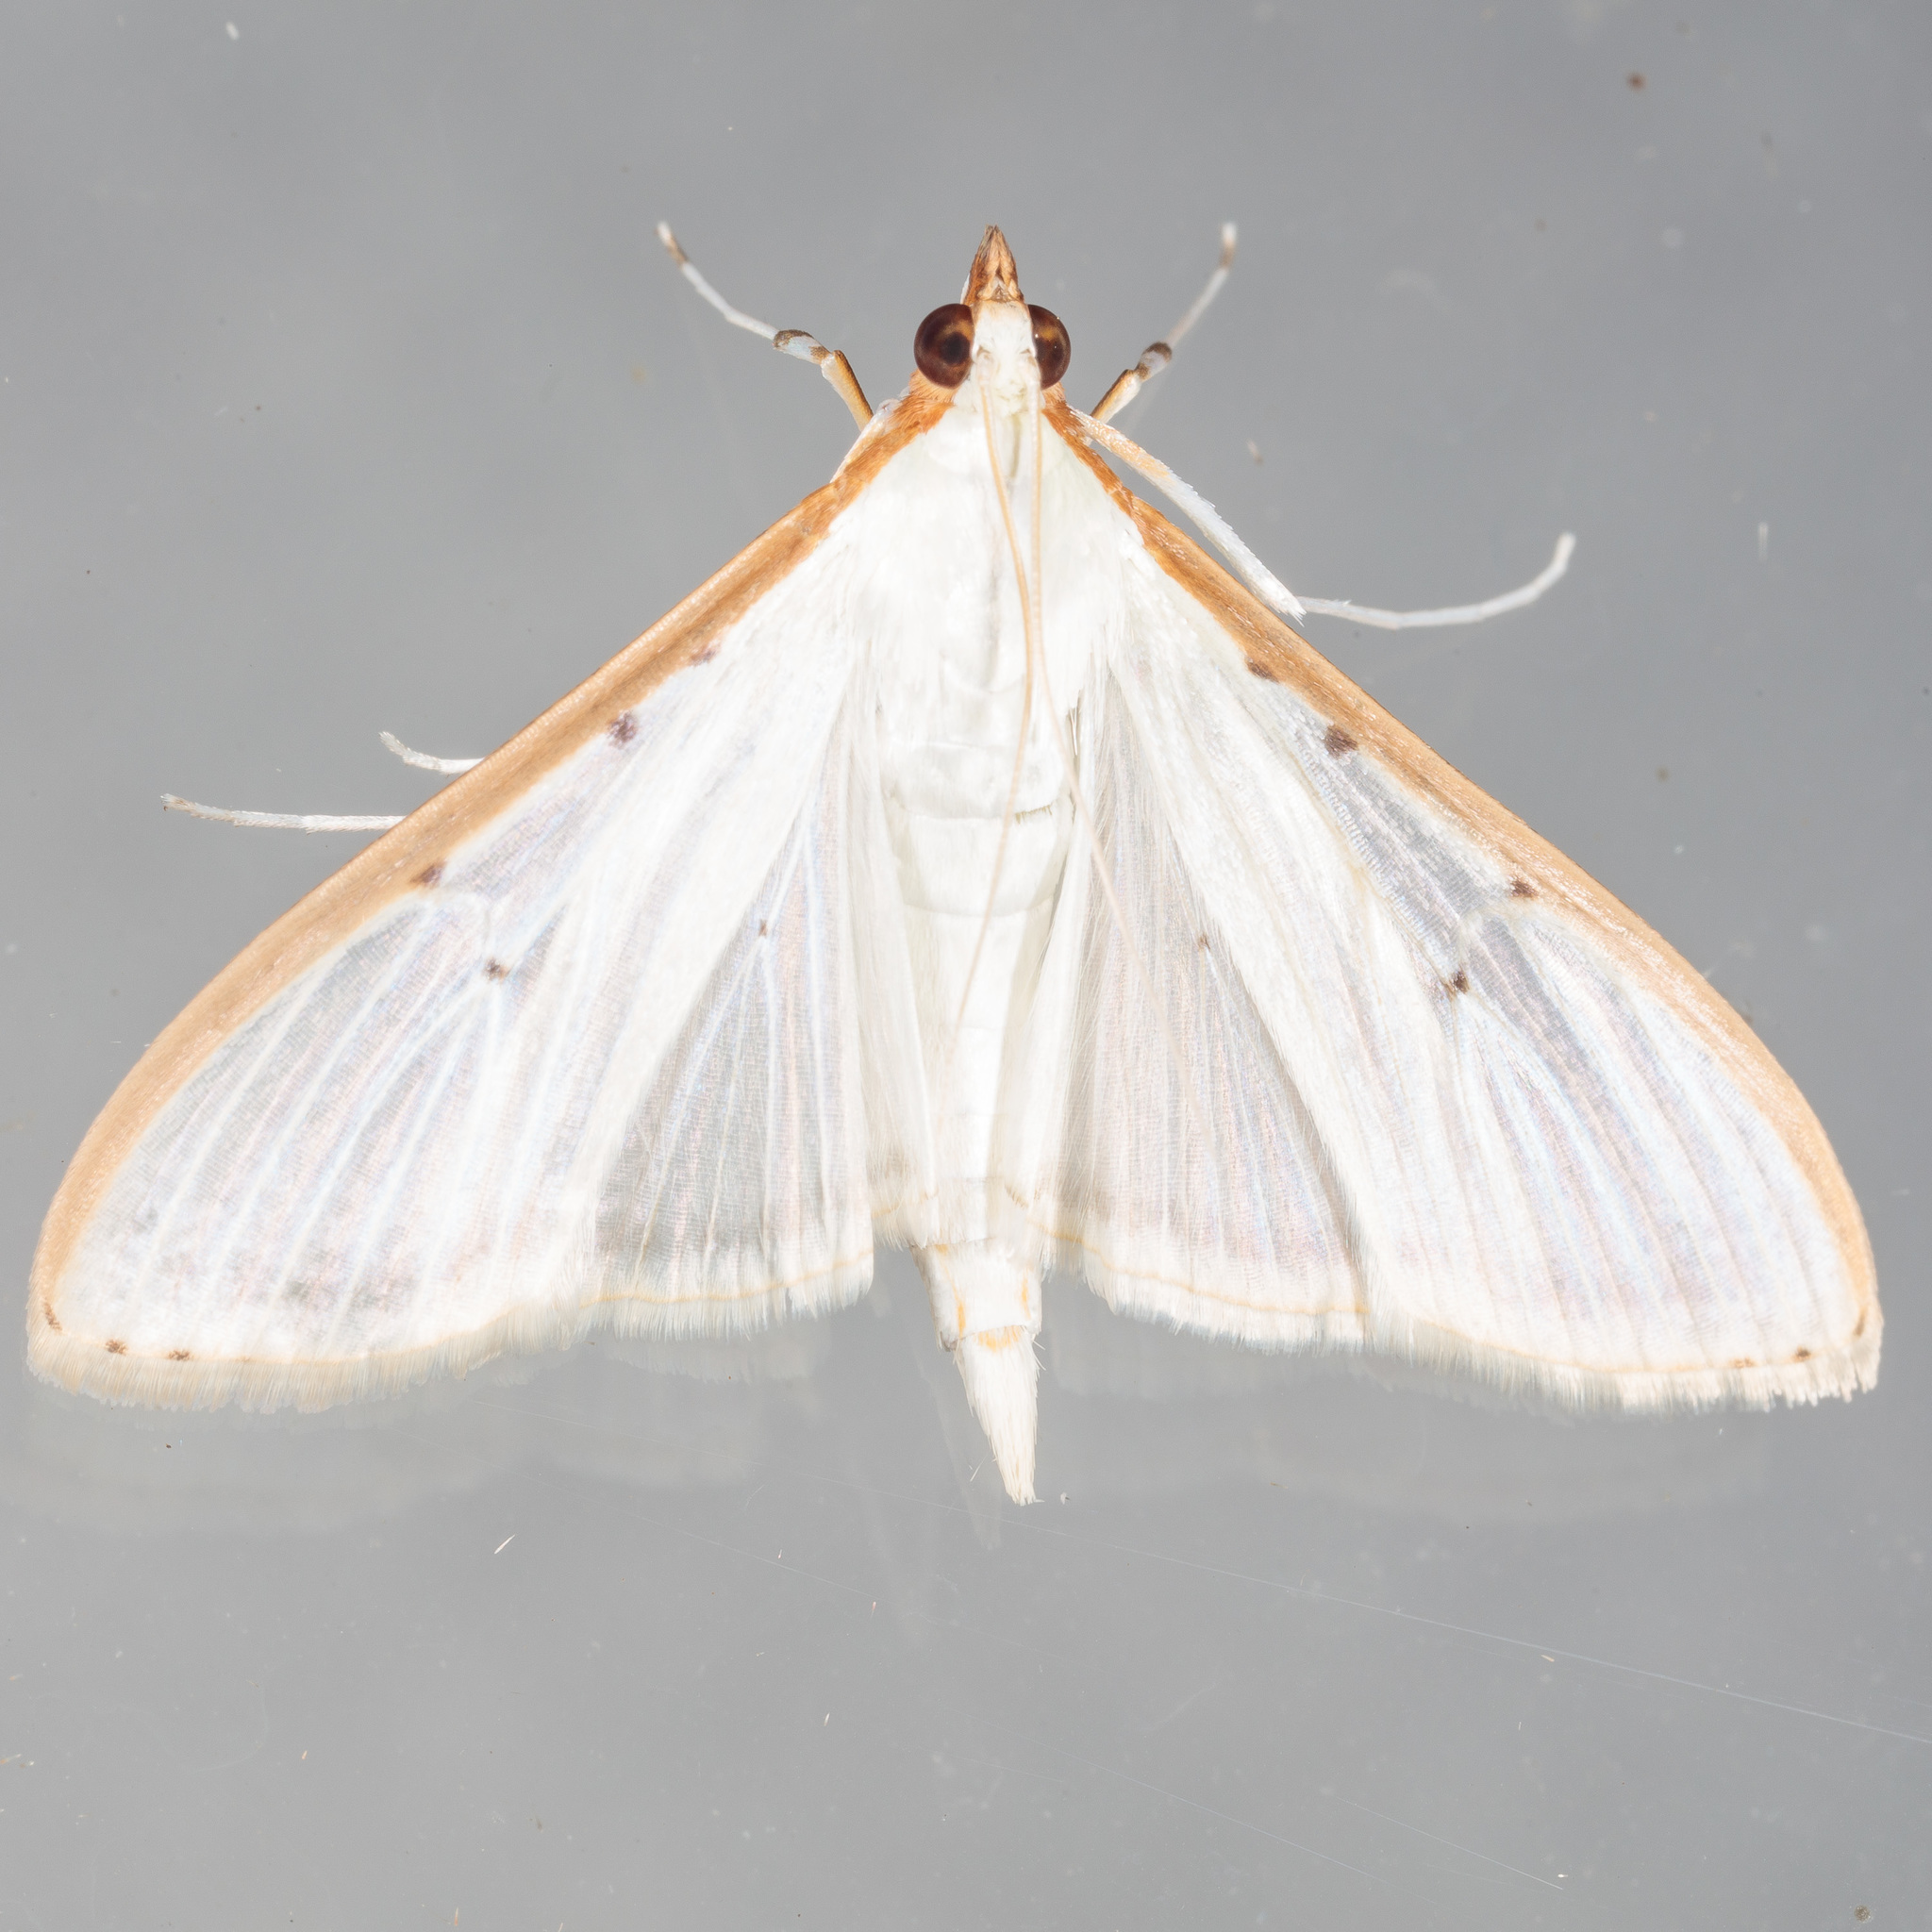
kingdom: Animalia
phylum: Arthropoda
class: Insecta
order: Lepidoptera
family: Crambidae
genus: Palpita
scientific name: Palpita quadristigmalis
